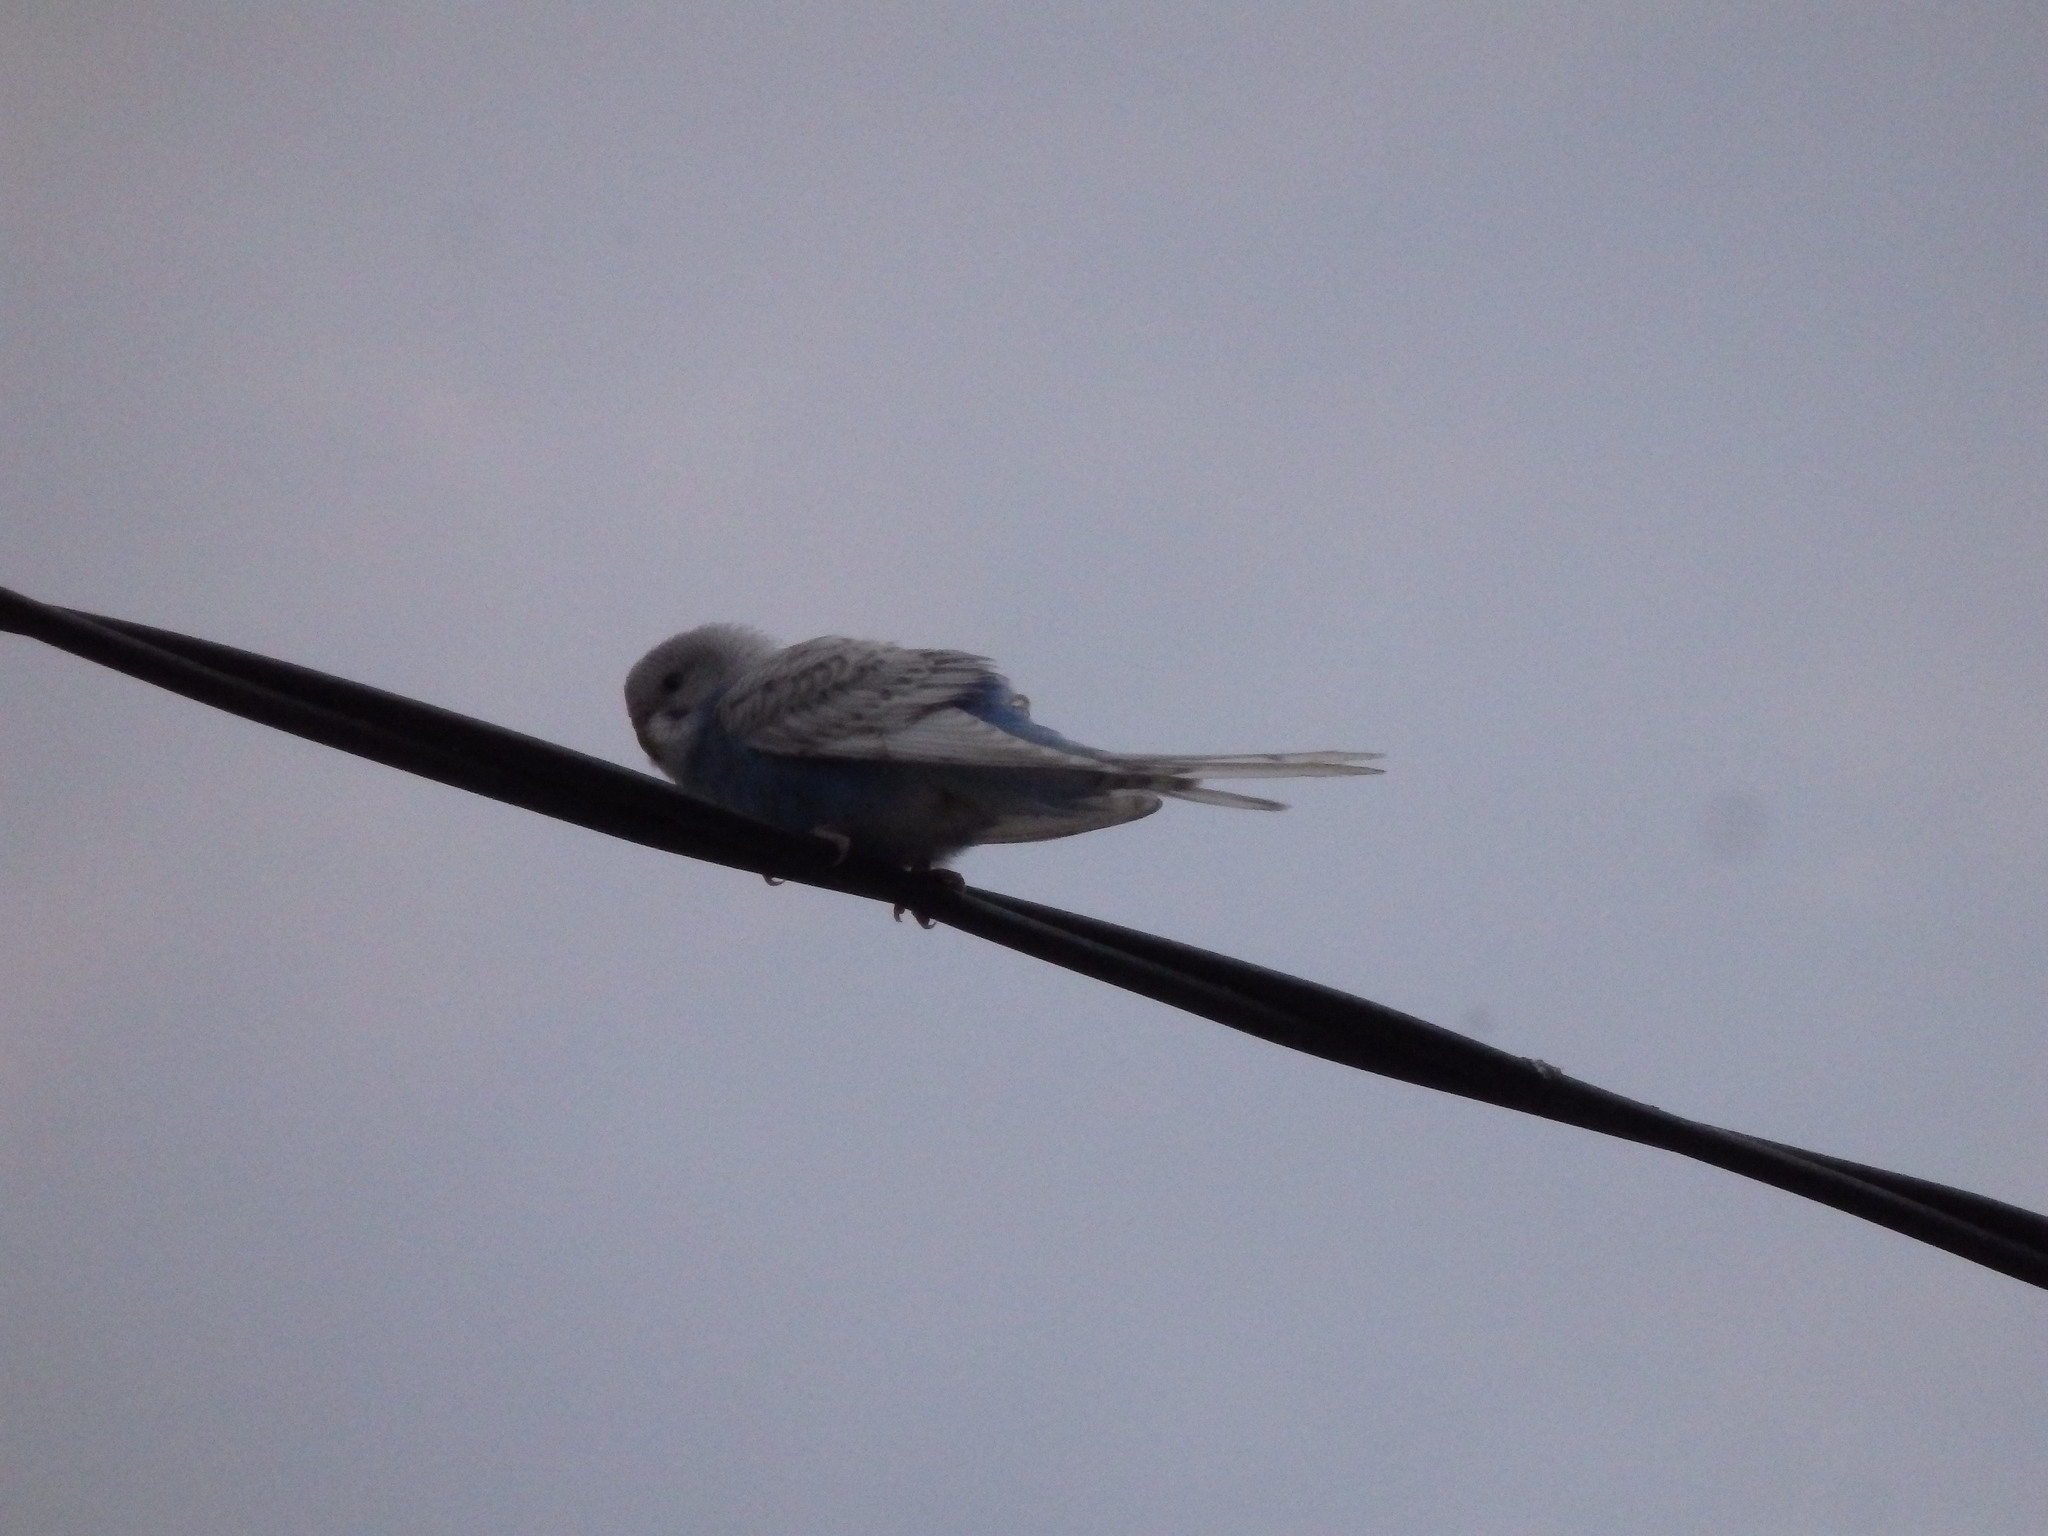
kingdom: Animalia
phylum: Chordata
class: Aves
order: Psittaciformes
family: Psittacidae
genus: Melopsittacus
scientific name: Melopsittacus undulatus
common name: Budgerigar
